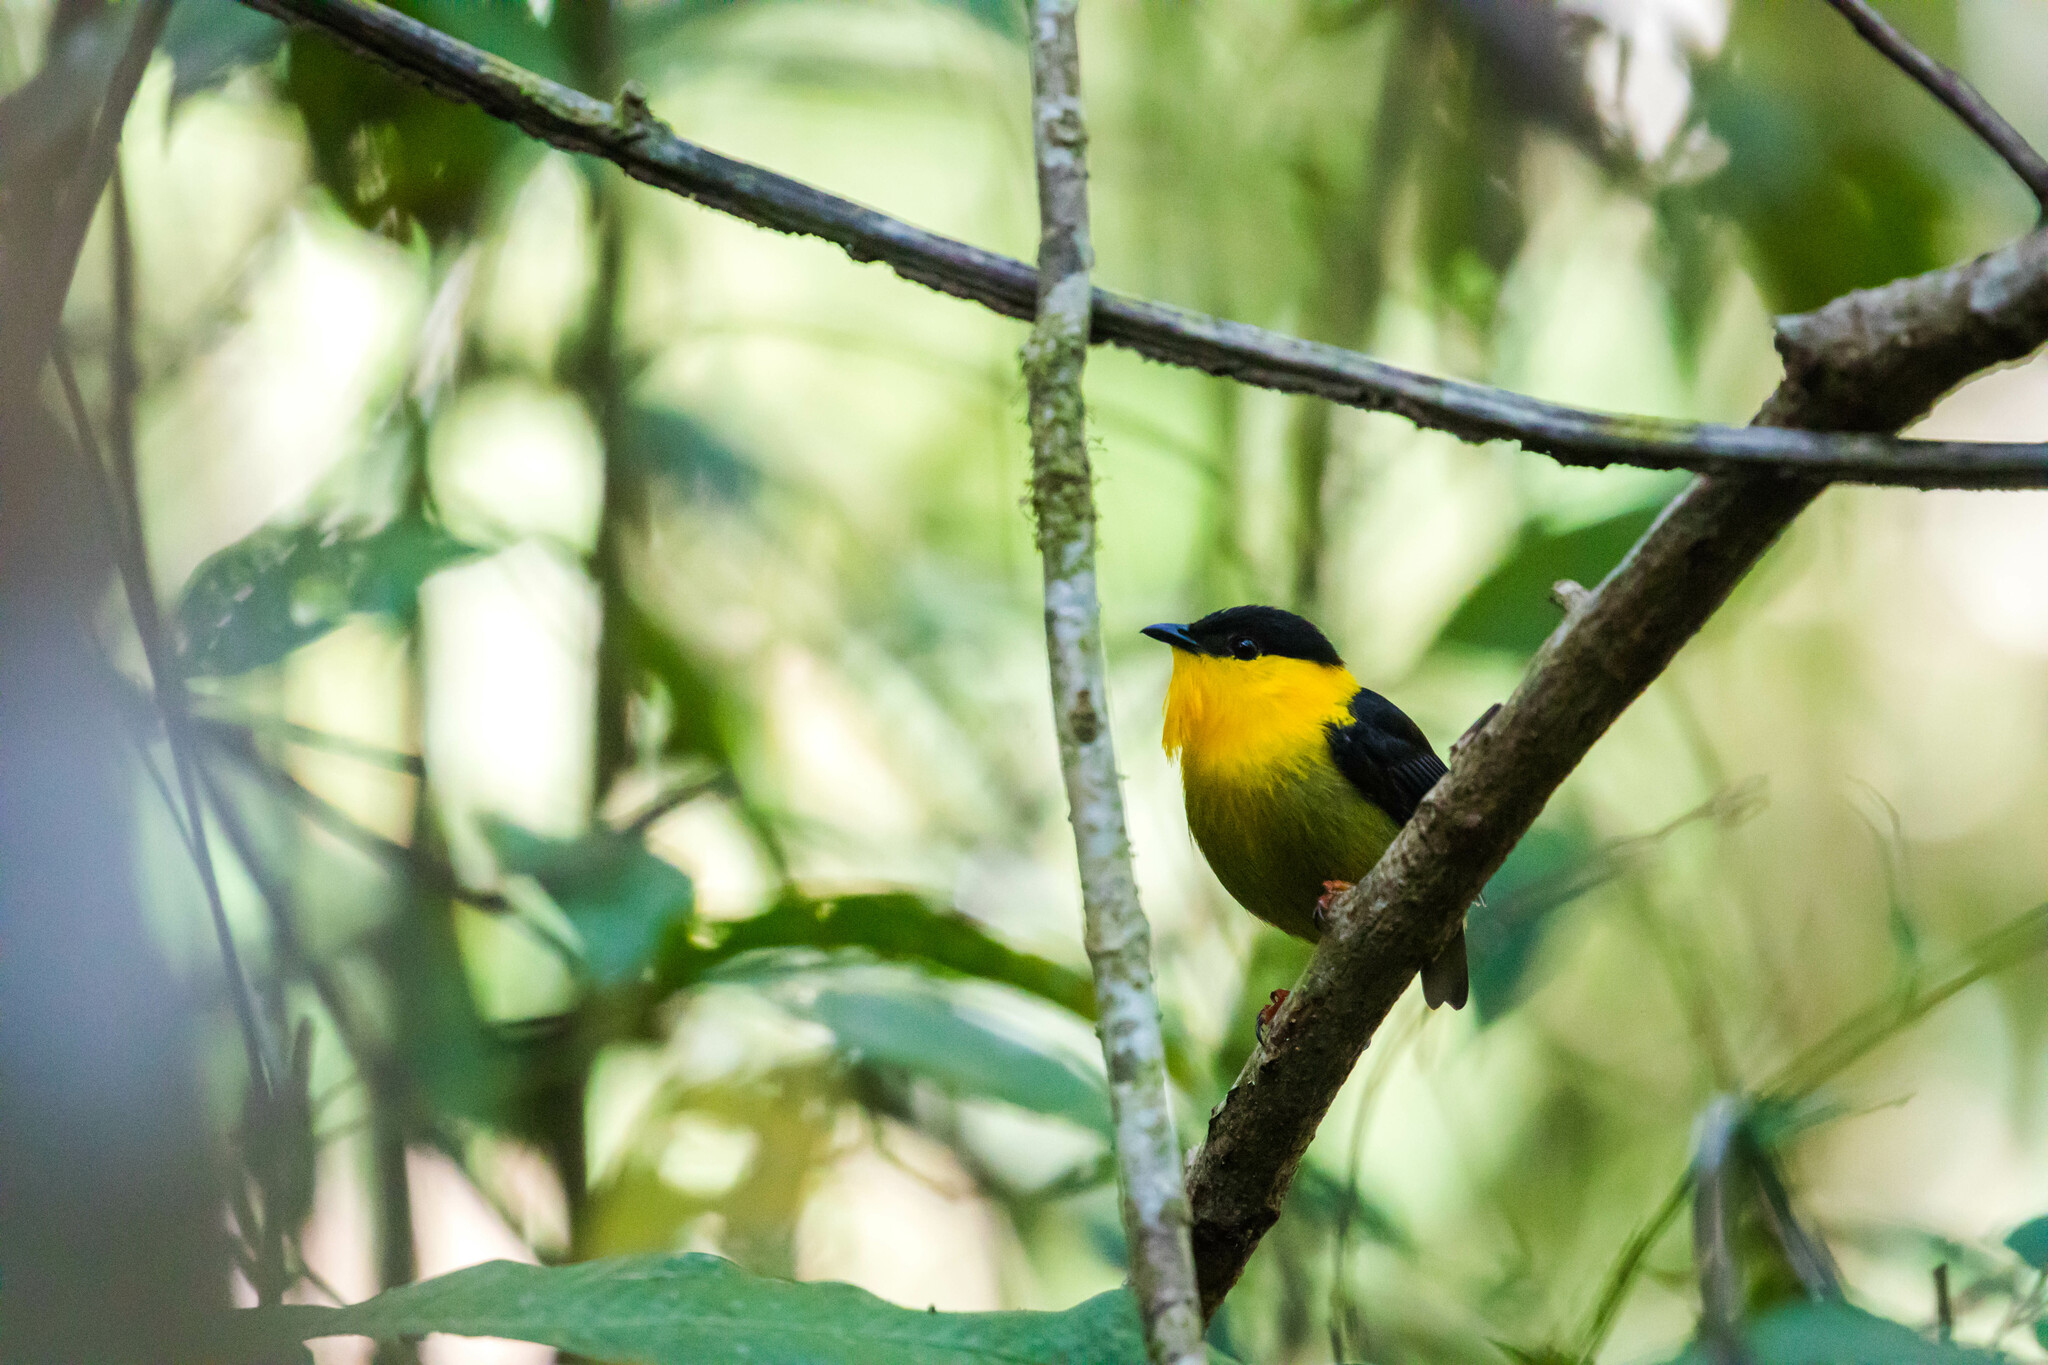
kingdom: Animalia
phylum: Chordata
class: Aves
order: Passeriformes
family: Pipridae
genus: Manacus
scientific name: Manacus vitellinus
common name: Golden-collared manakin
